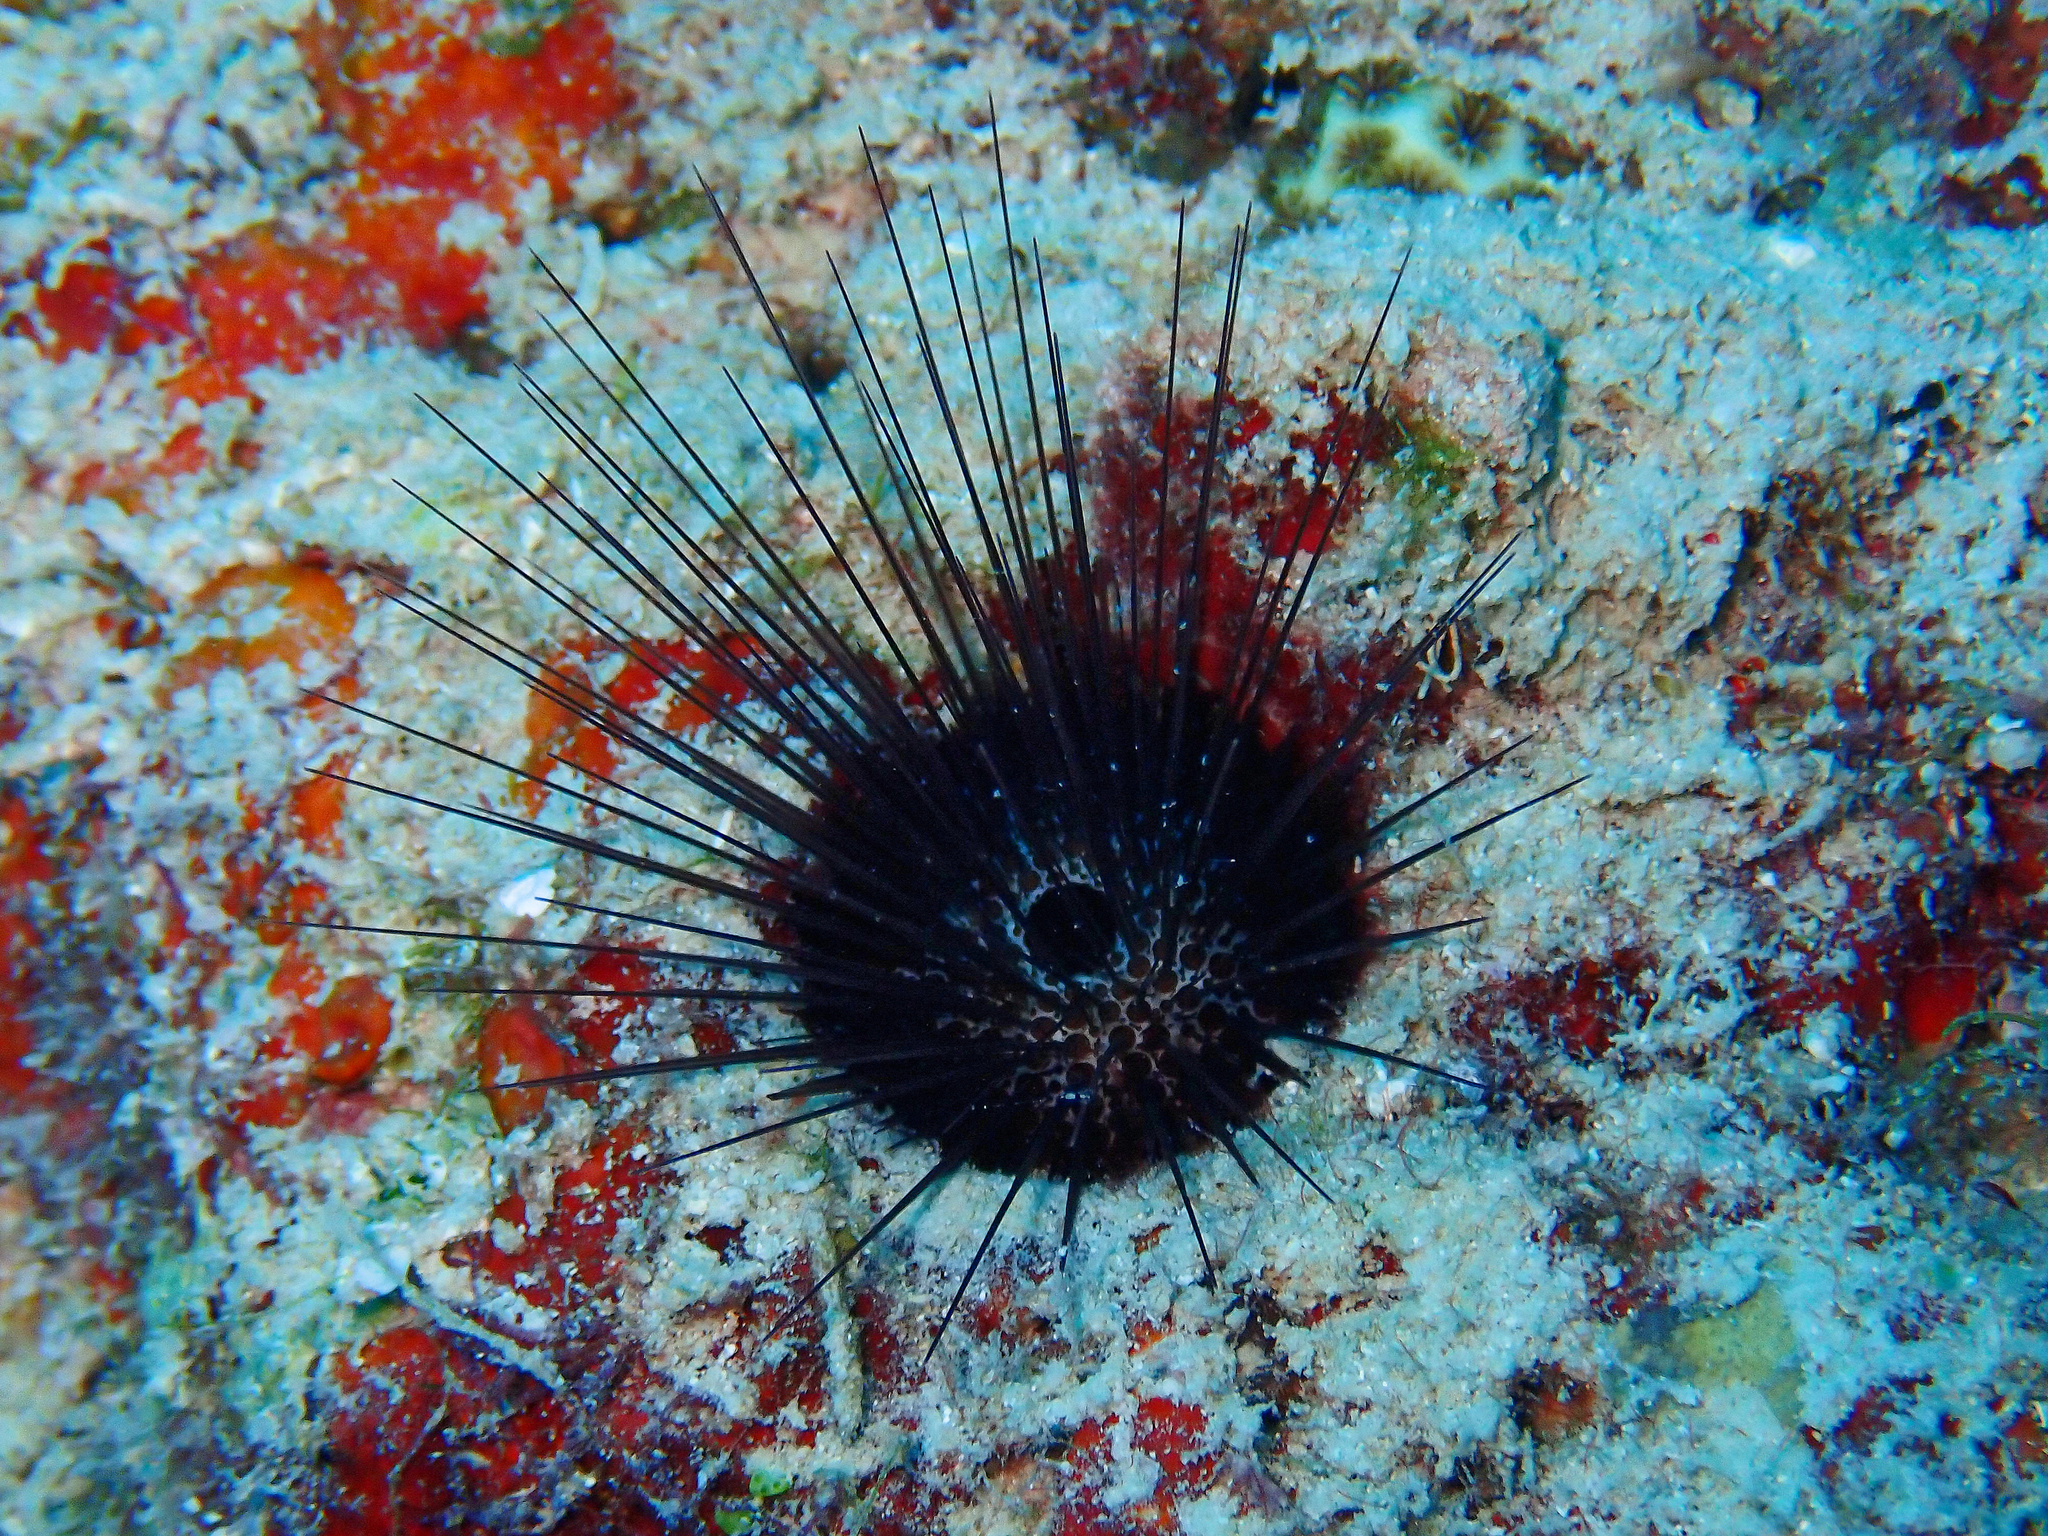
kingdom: Animalia
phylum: Echinodermata
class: Echinoidea
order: Camarodonta
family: Echinometridae
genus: Echinostrephus
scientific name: Echinostrephus aciculatus
